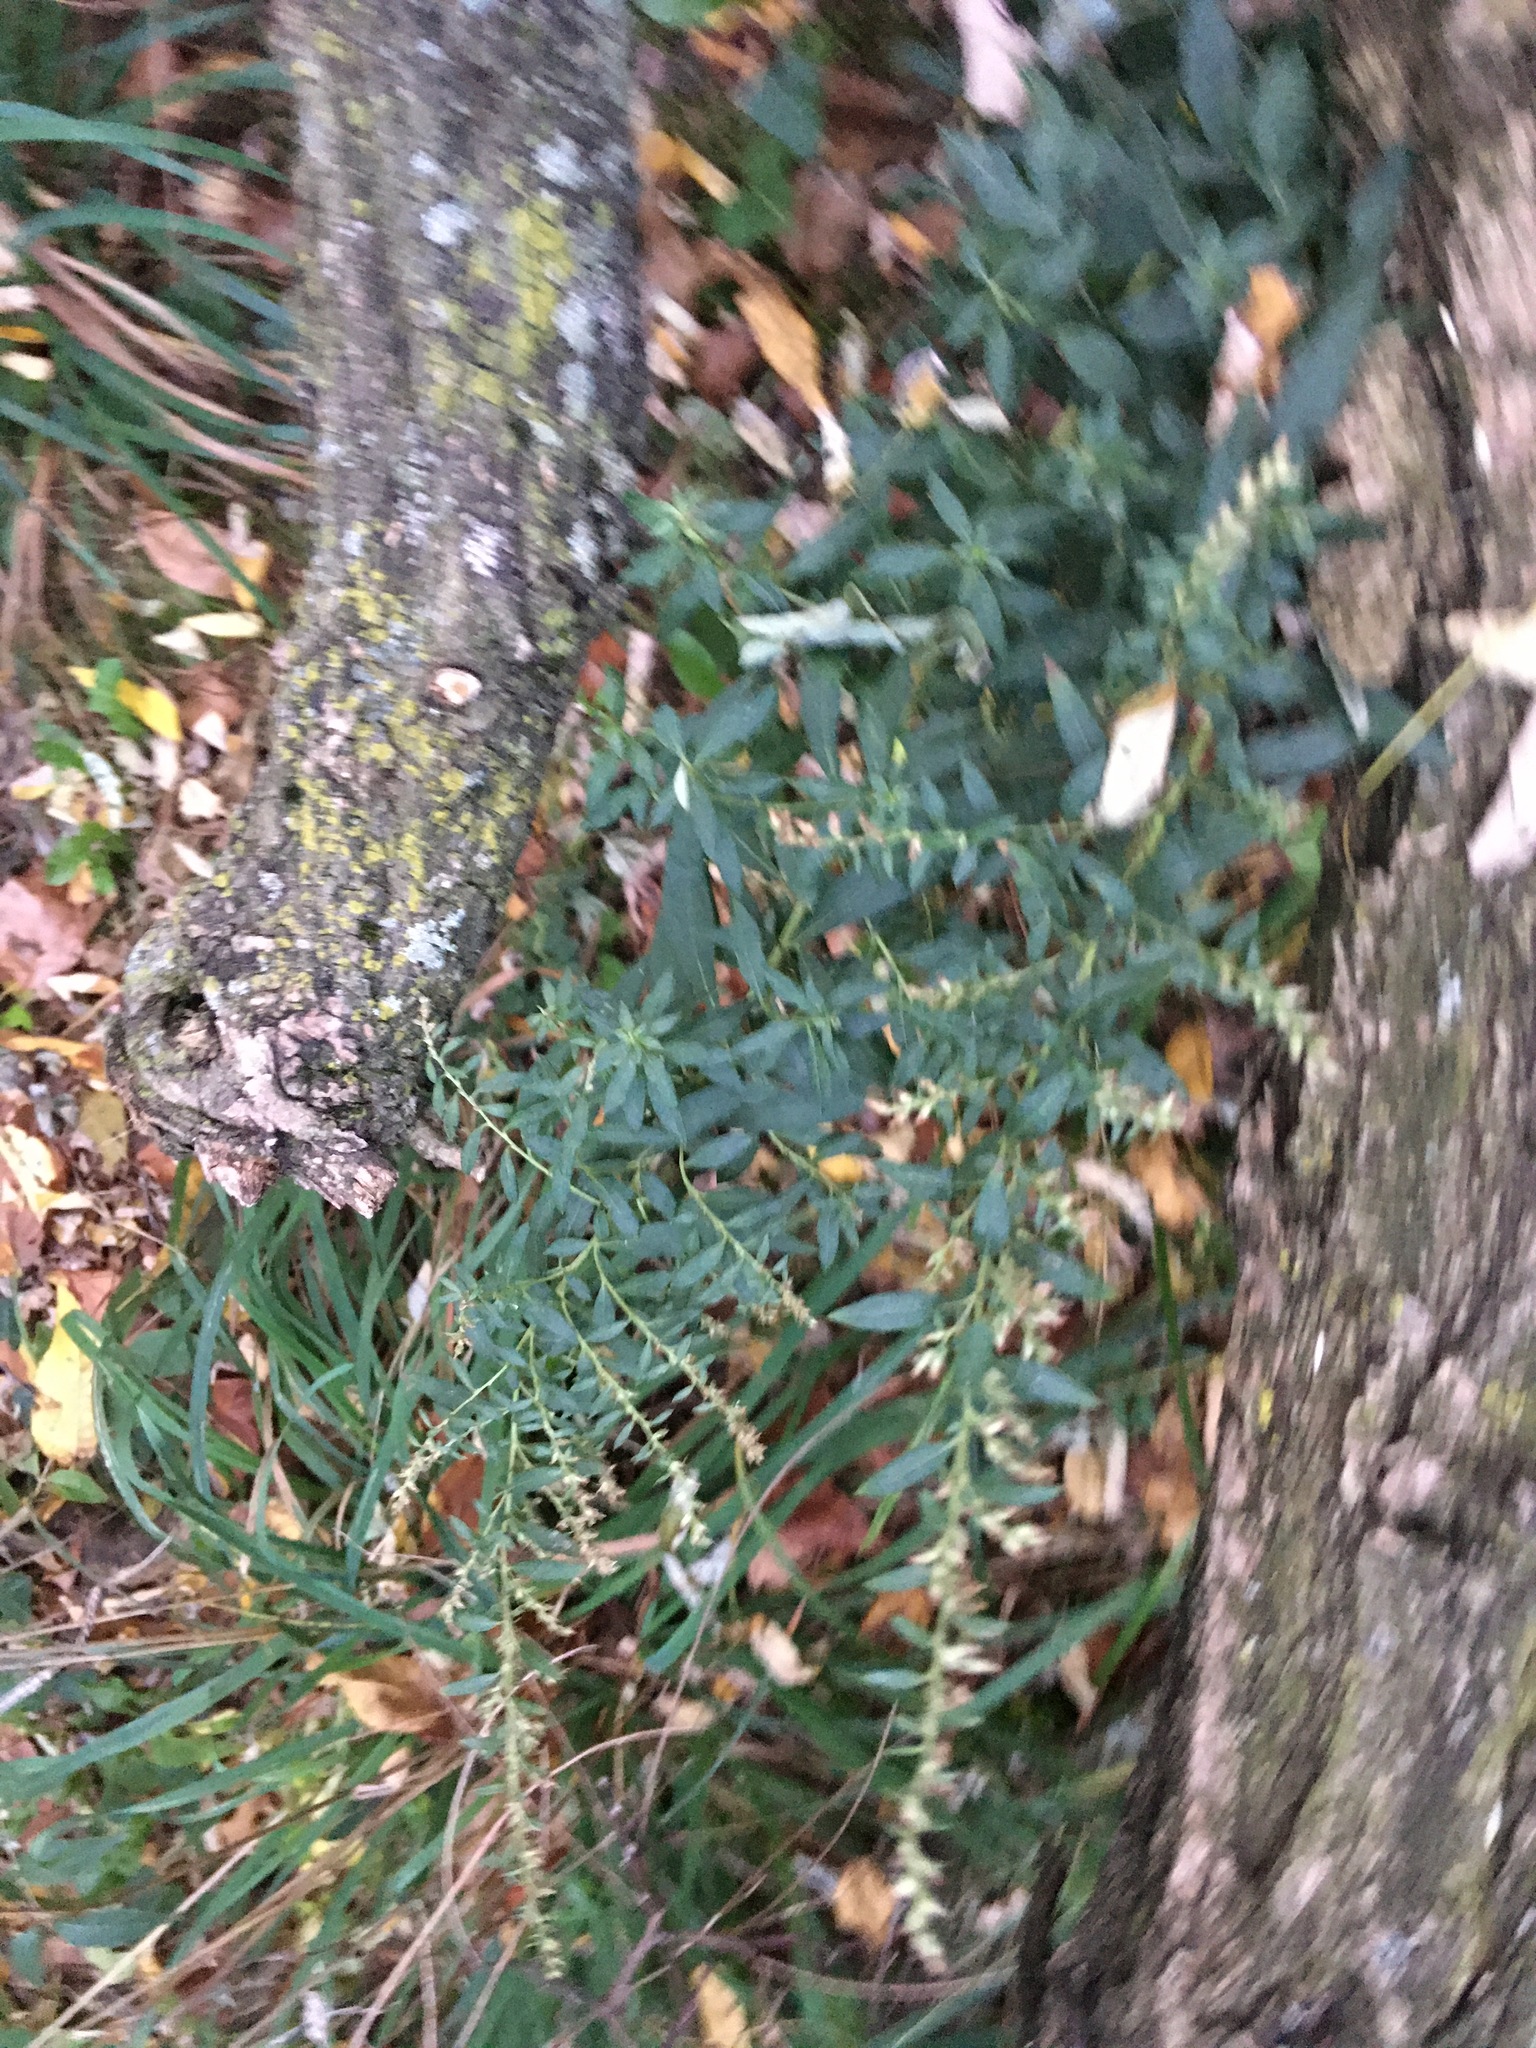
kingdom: Plantae
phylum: Tracheophyta
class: Magnoliopsida
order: Asterales
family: Asteraceae
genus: Artemisia
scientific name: Artemisia vulgaris
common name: Mugwort
